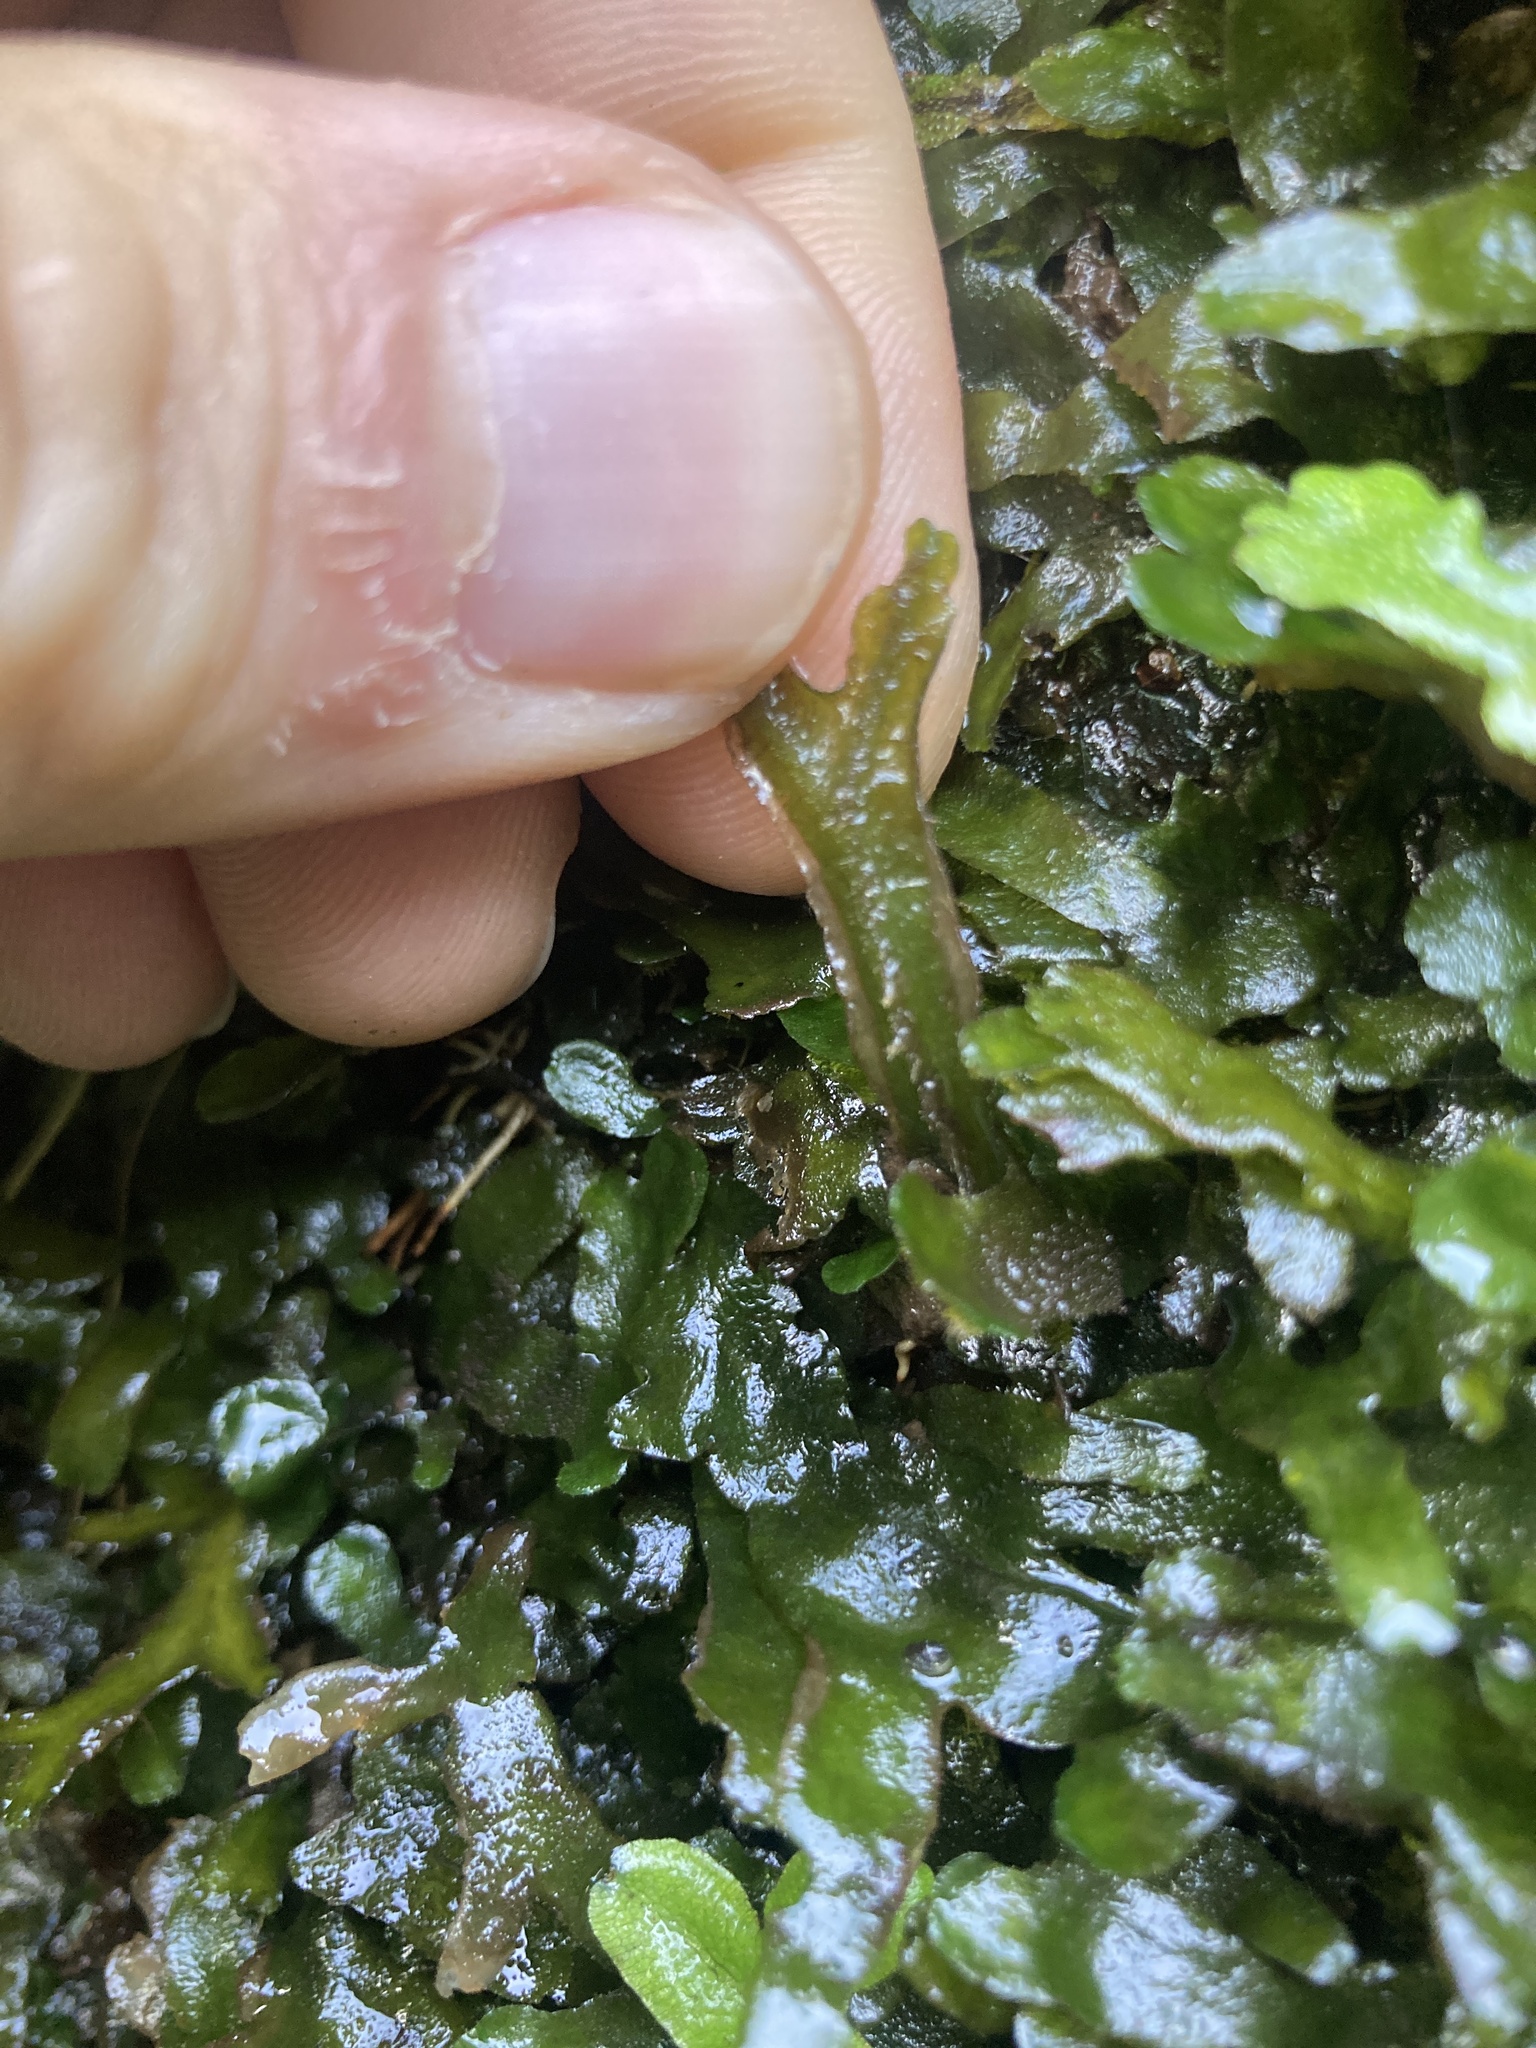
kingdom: Plantae
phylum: Marchantiophyta
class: Marchantiopsida
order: Marchantiales
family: Dumortieraceae
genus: Dumortiera
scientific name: Dumortiera hirsuta
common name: Dumortier's liverwort
